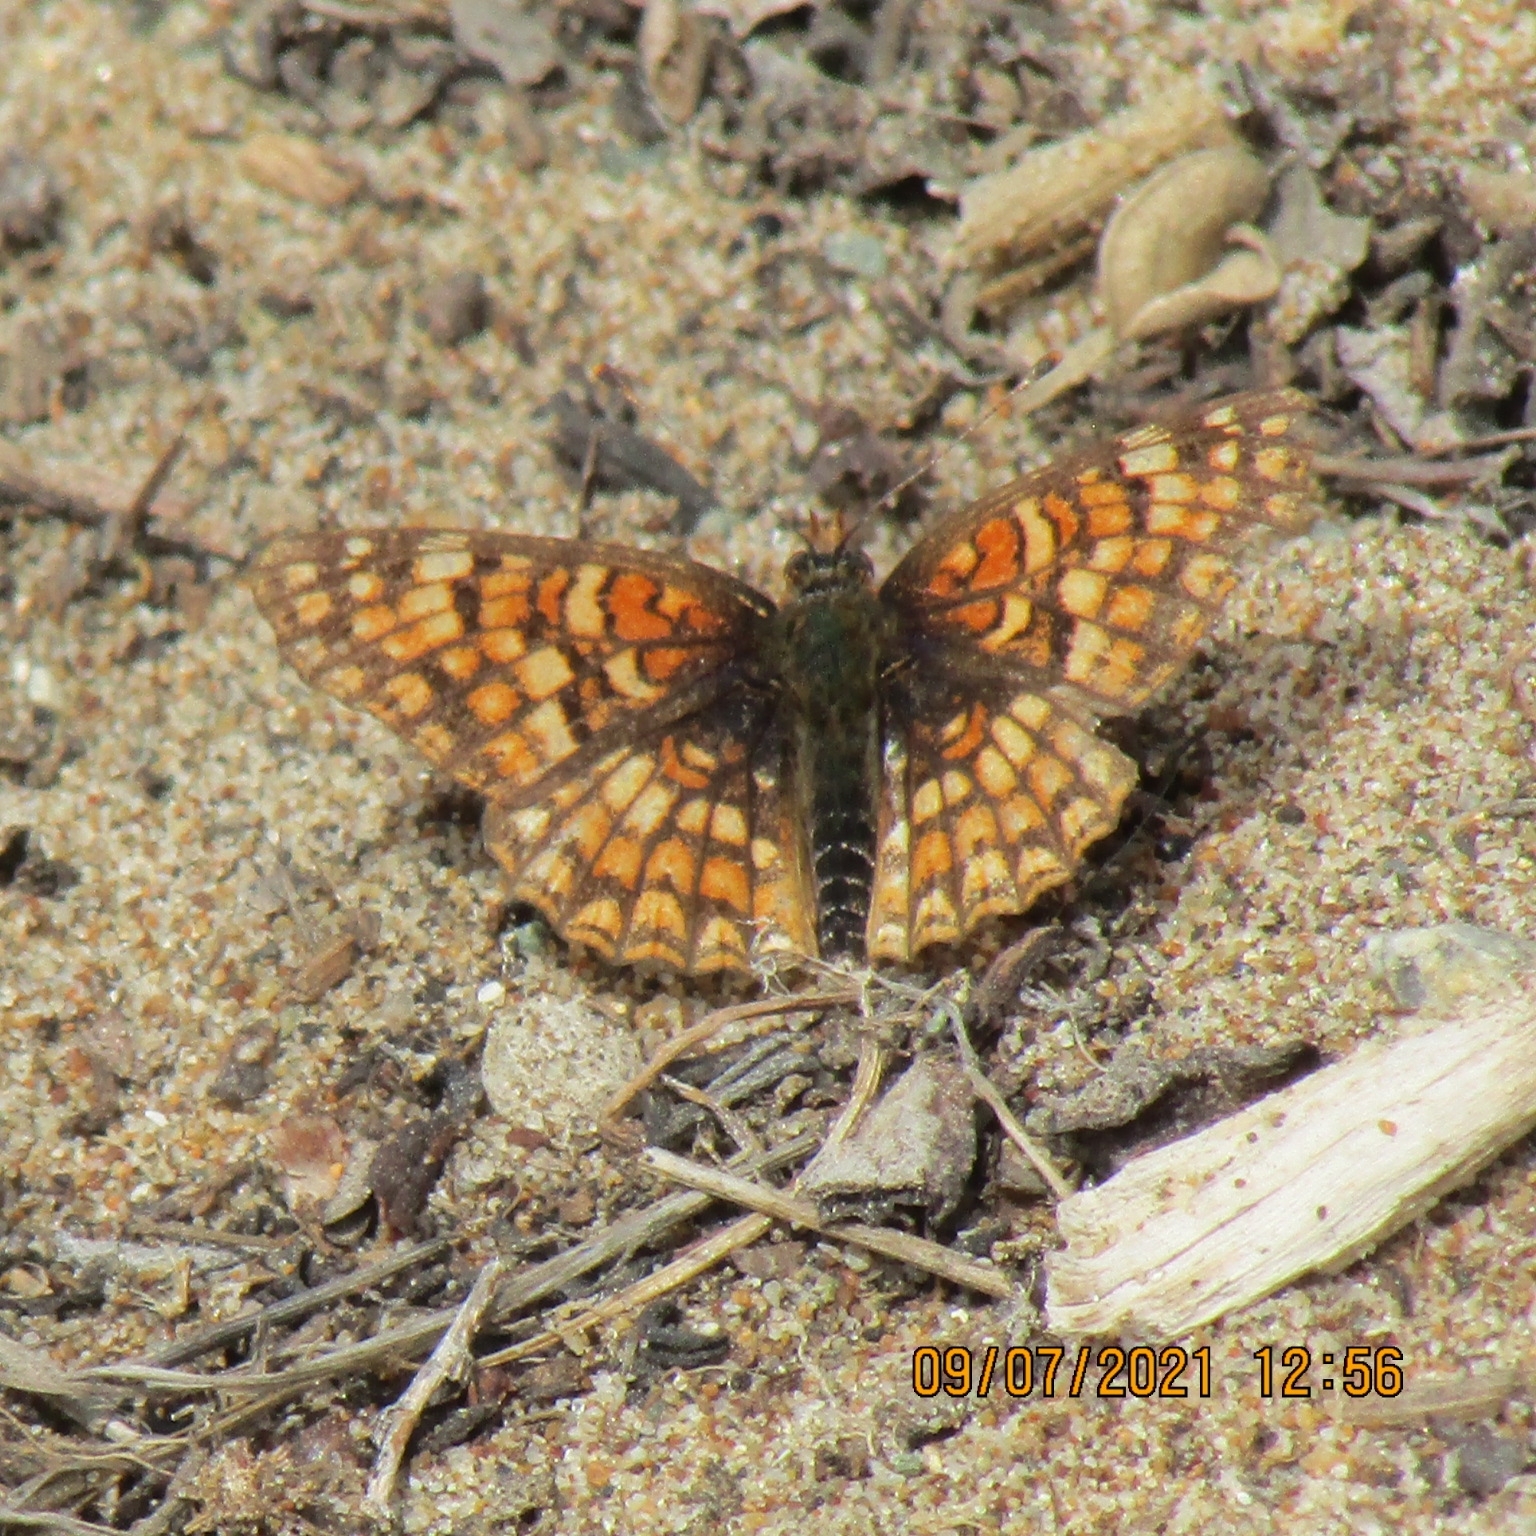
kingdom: Animalia
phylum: Arthropoda
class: Insecta
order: Lepidoptera
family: Nymphalidae
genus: Chlosyne
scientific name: Chlosyne gabbii
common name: Gabb's checkerspot
